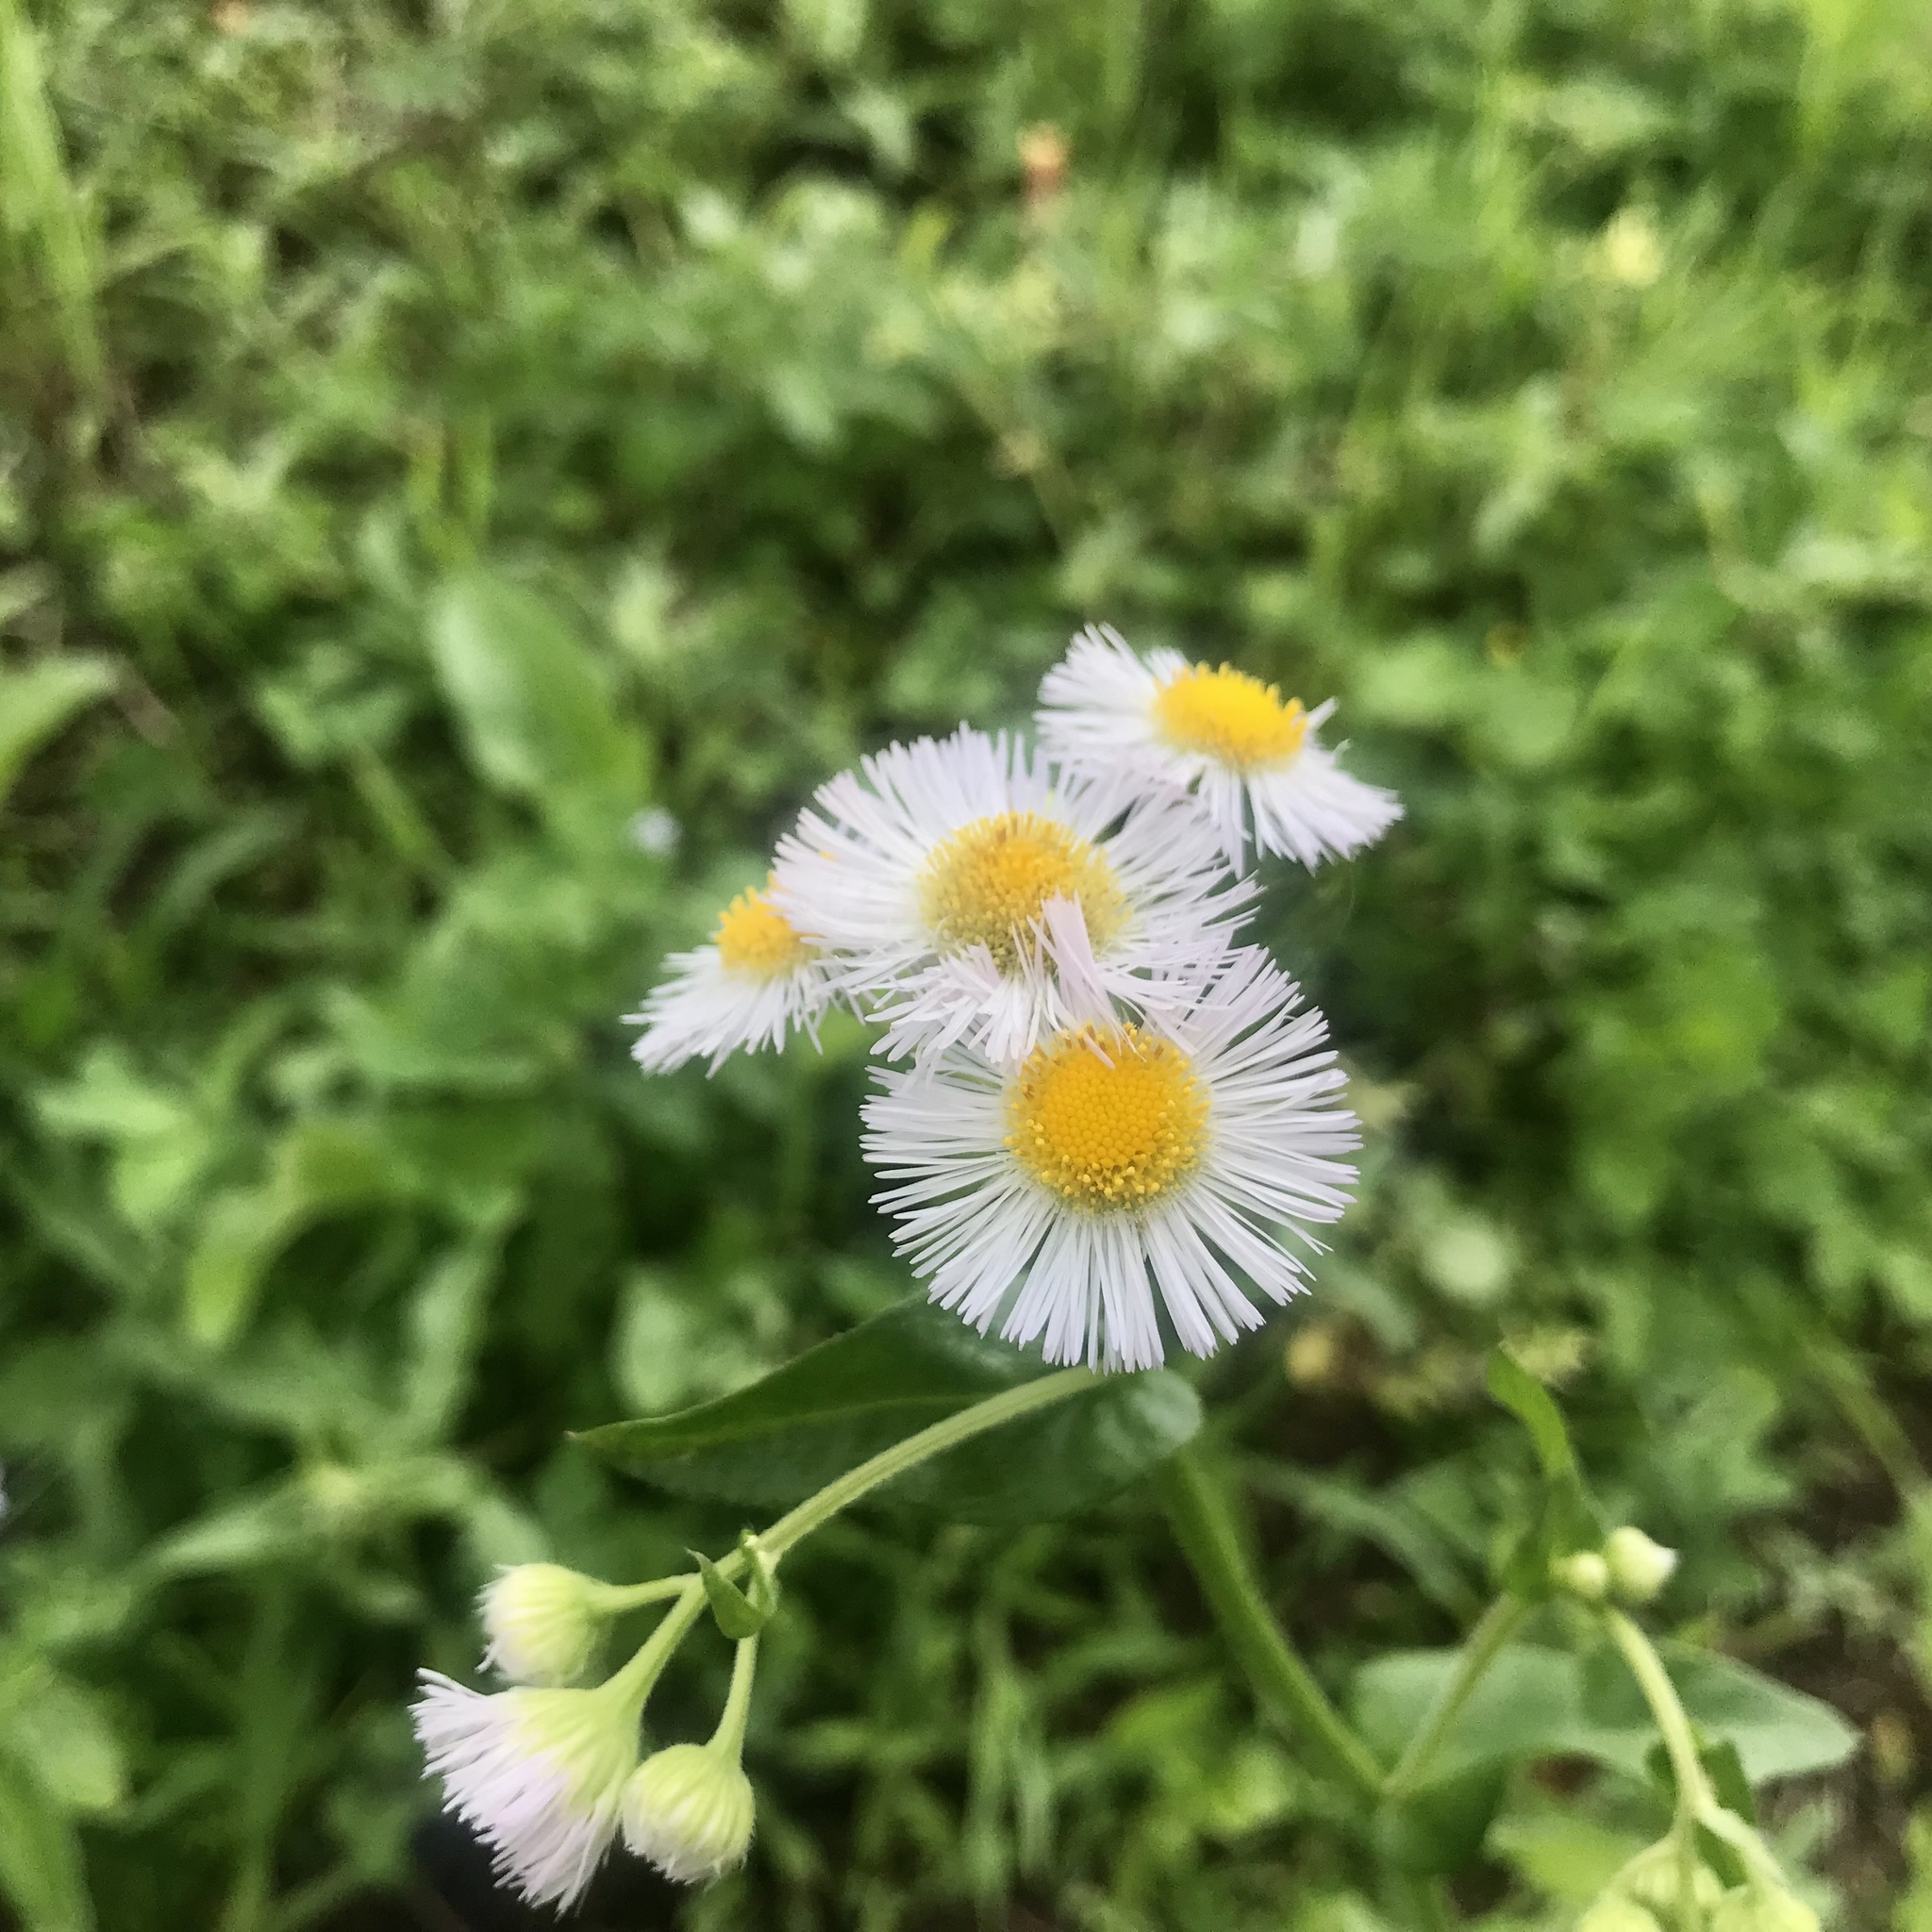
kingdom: Plantae
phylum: Tracheophyta
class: Magnoliopsida
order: Asterales
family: Asteraceae
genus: Erigeron
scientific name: Erigeron philadelphicus
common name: Robin's-plantain
